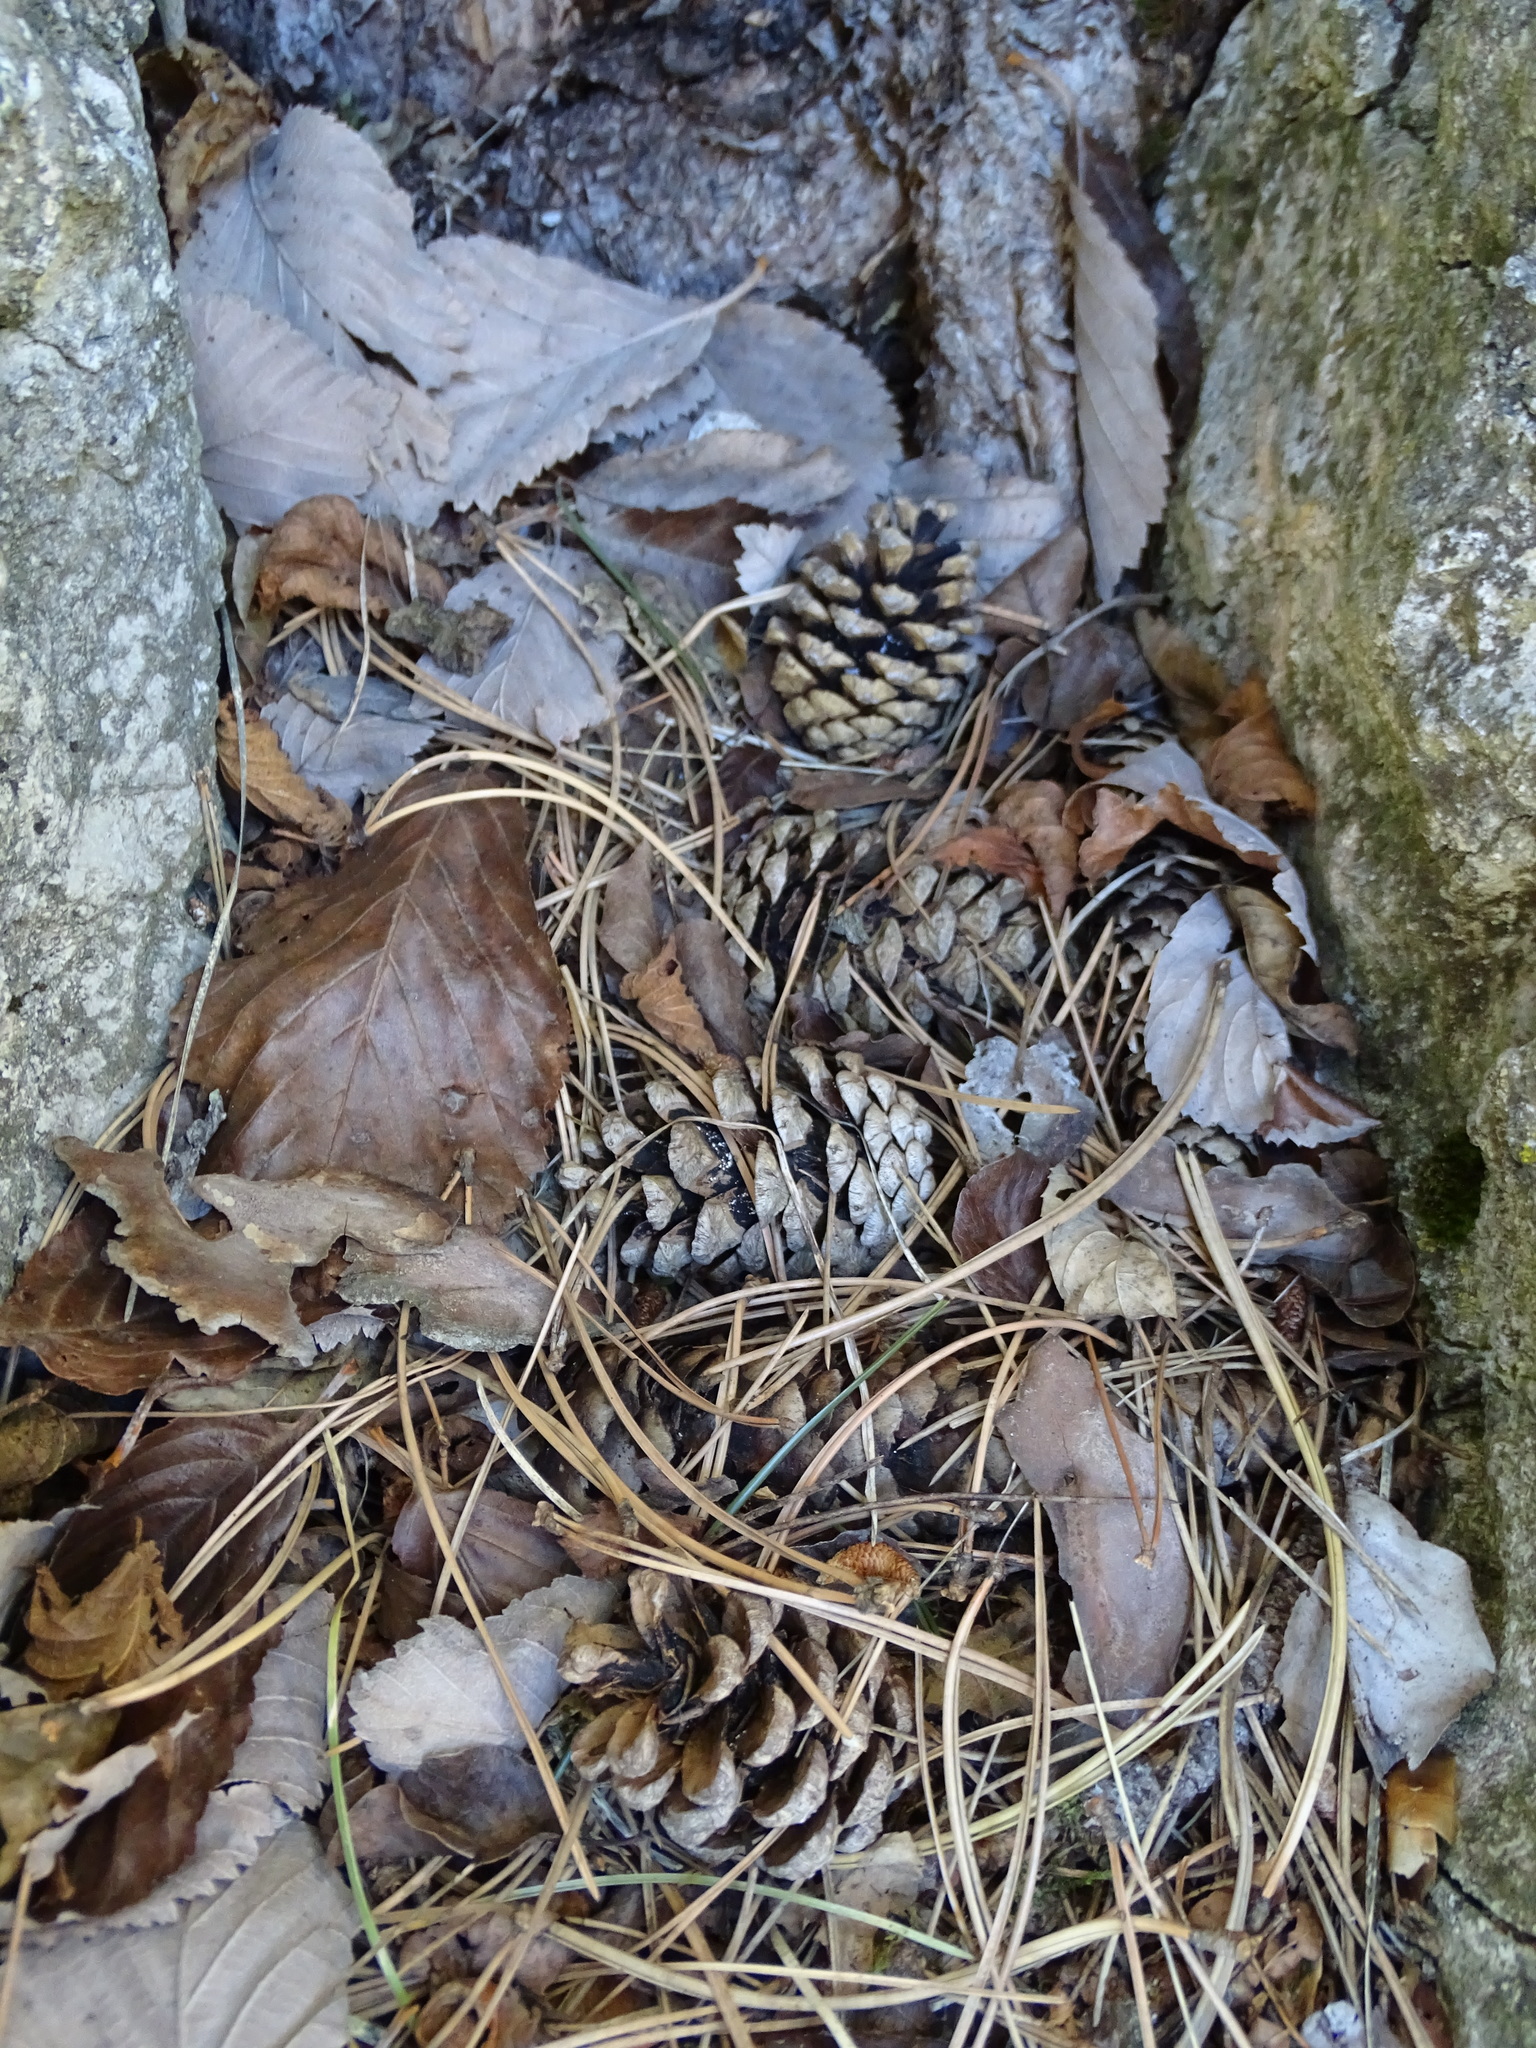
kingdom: Plantae
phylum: Tracheophyta
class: Pinopsida
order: Pinales
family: Pinaceae
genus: Pinus
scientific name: Pinus nigra
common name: Austrian pine
